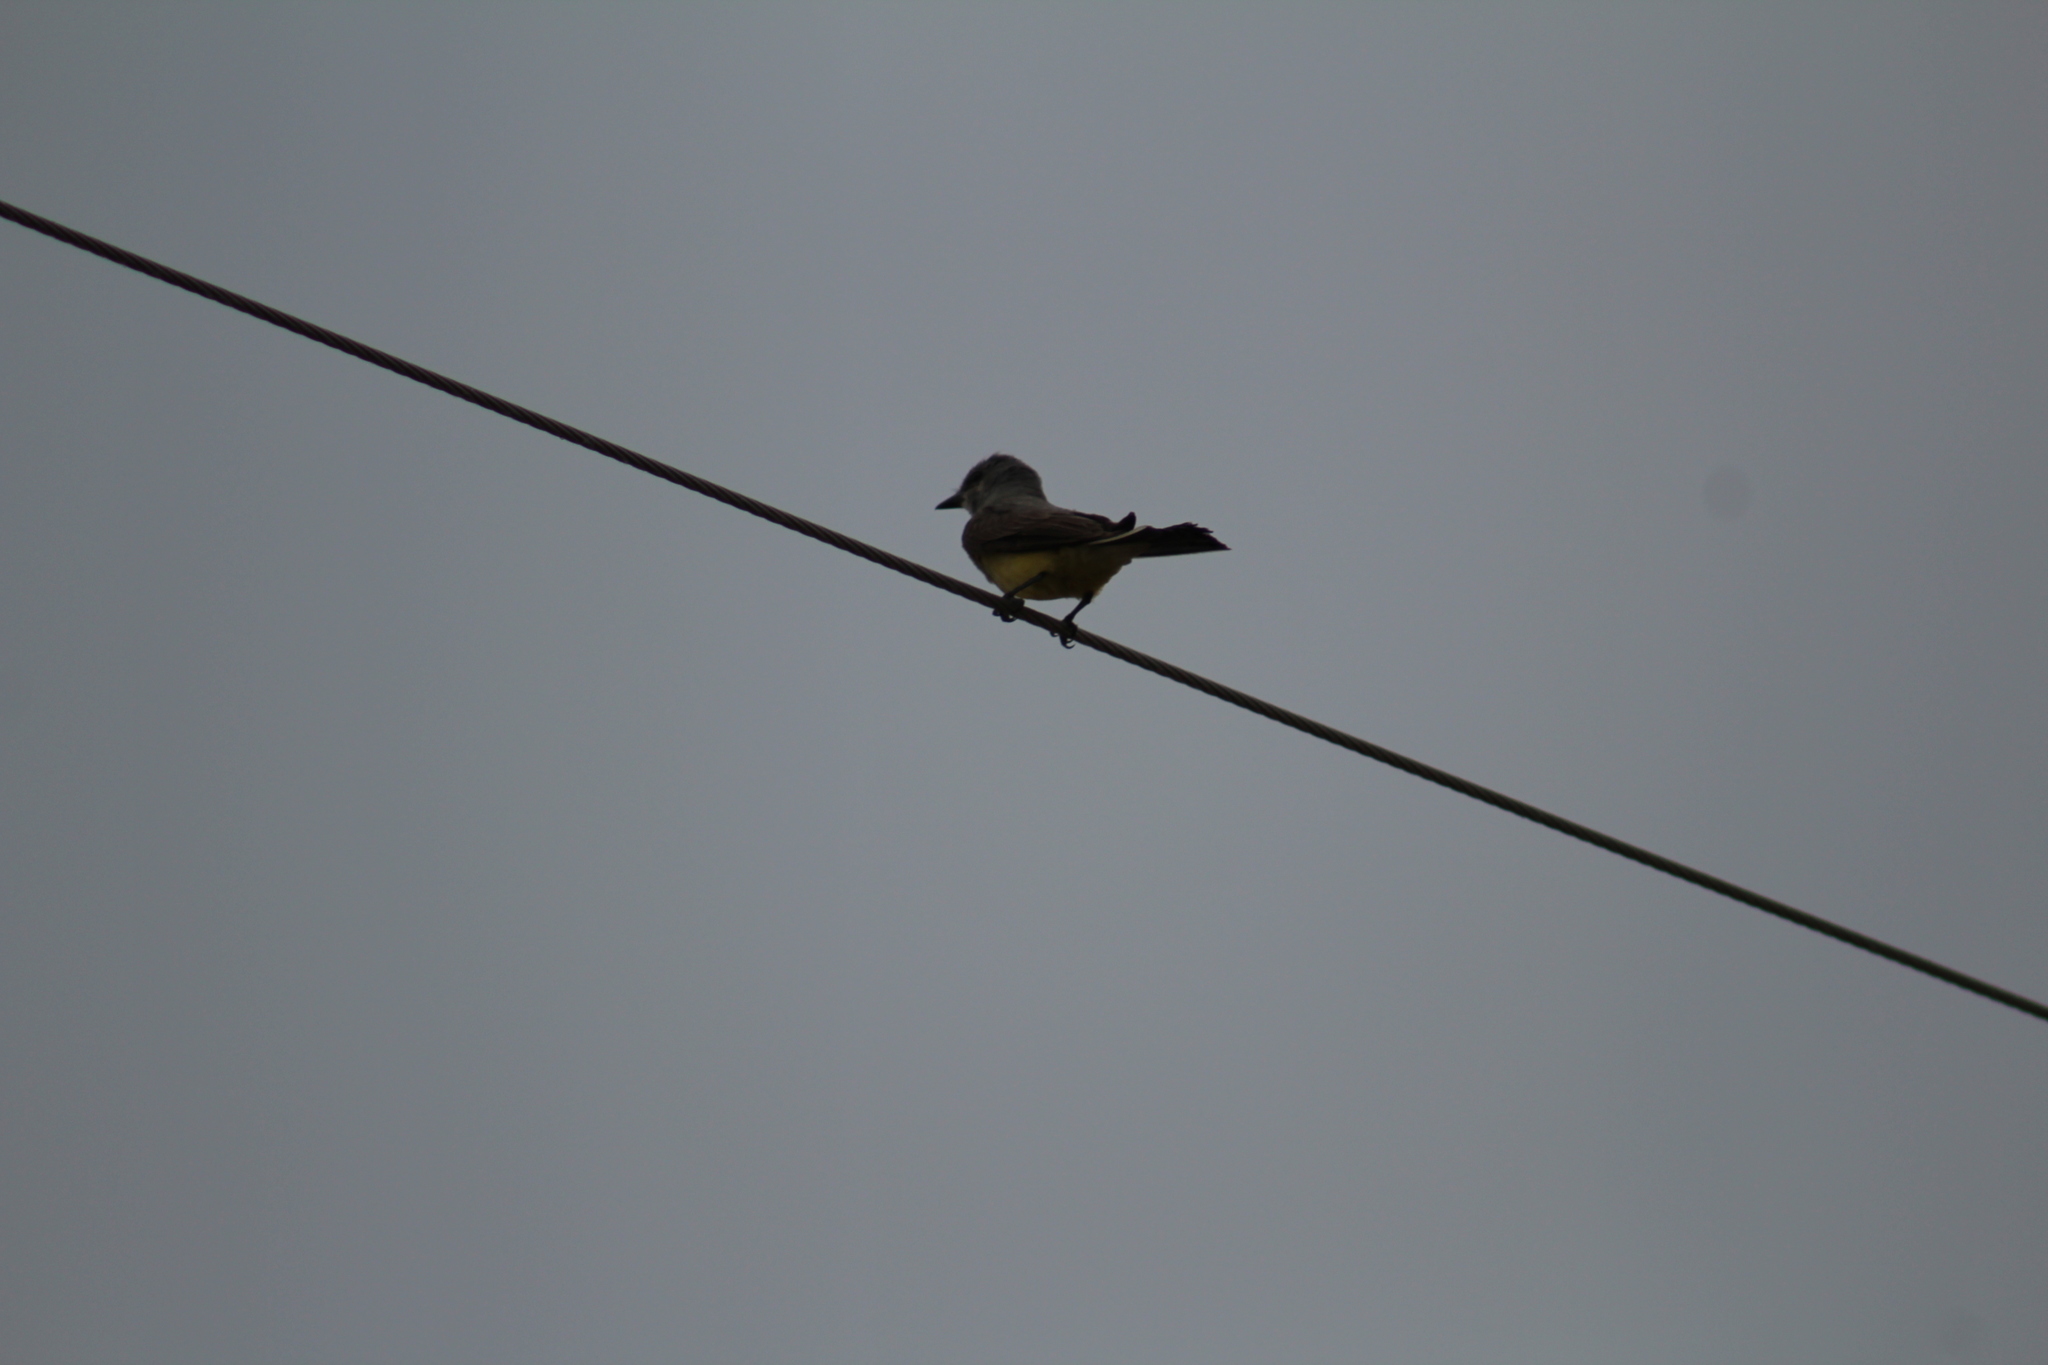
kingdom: Animalia
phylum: Chordata
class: Aves
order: Passeriformes
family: Tyrannidae
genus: Tyrannus
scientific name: Tyrannus verticalis
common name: Western kingbird
